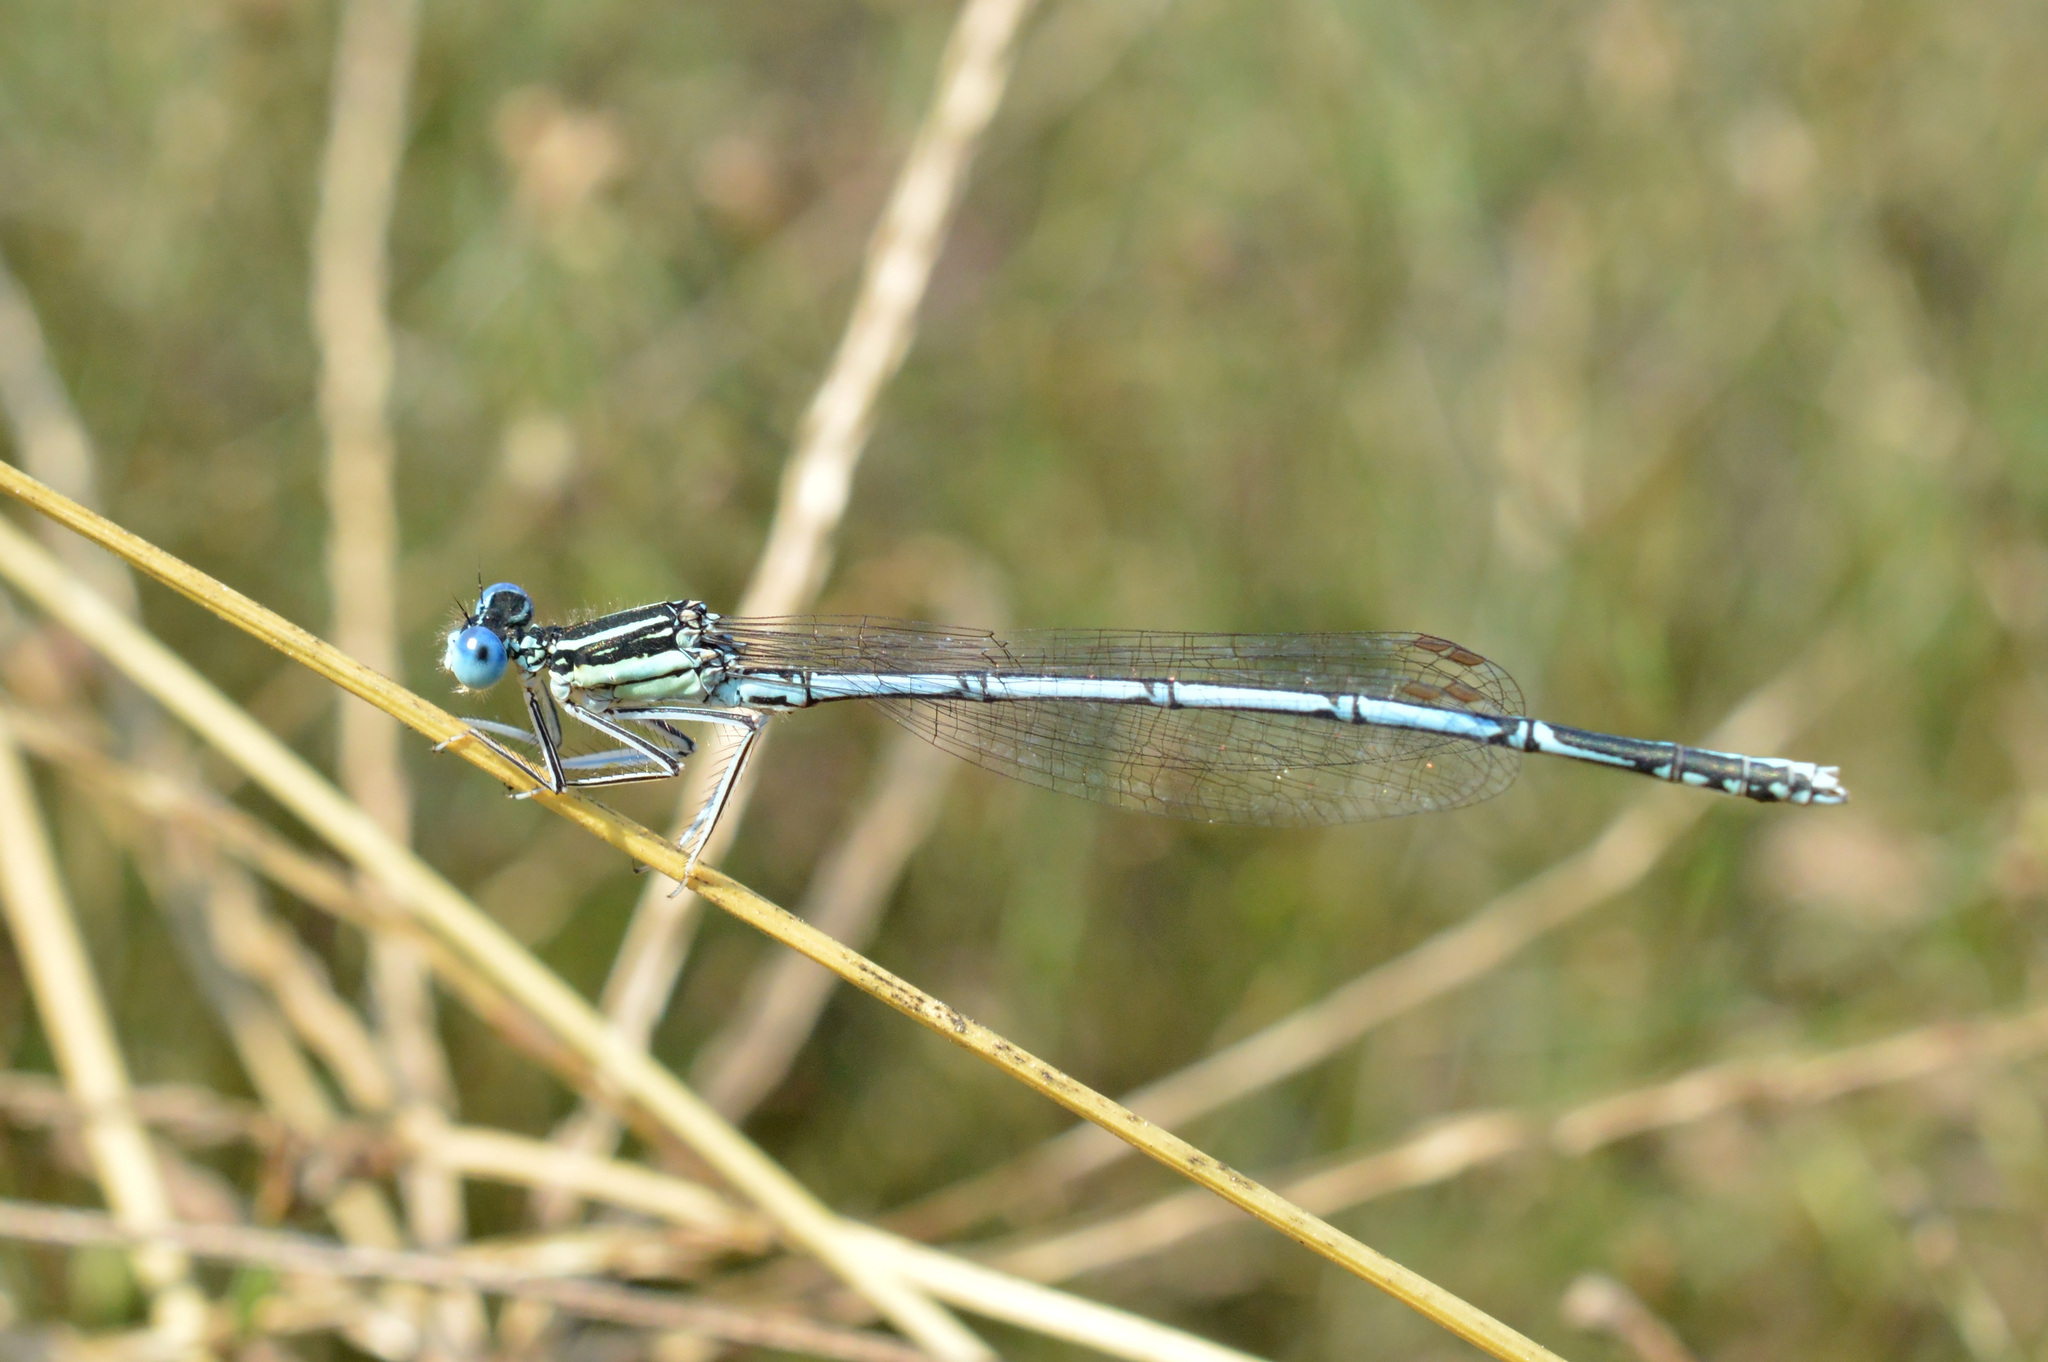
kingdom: Animalia
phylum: Arthropoda
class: Insecta
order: Odonata
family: Platycnemididae
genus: Platycnemis
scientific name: Platycnemis pennipes
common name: White-legged damselfly
